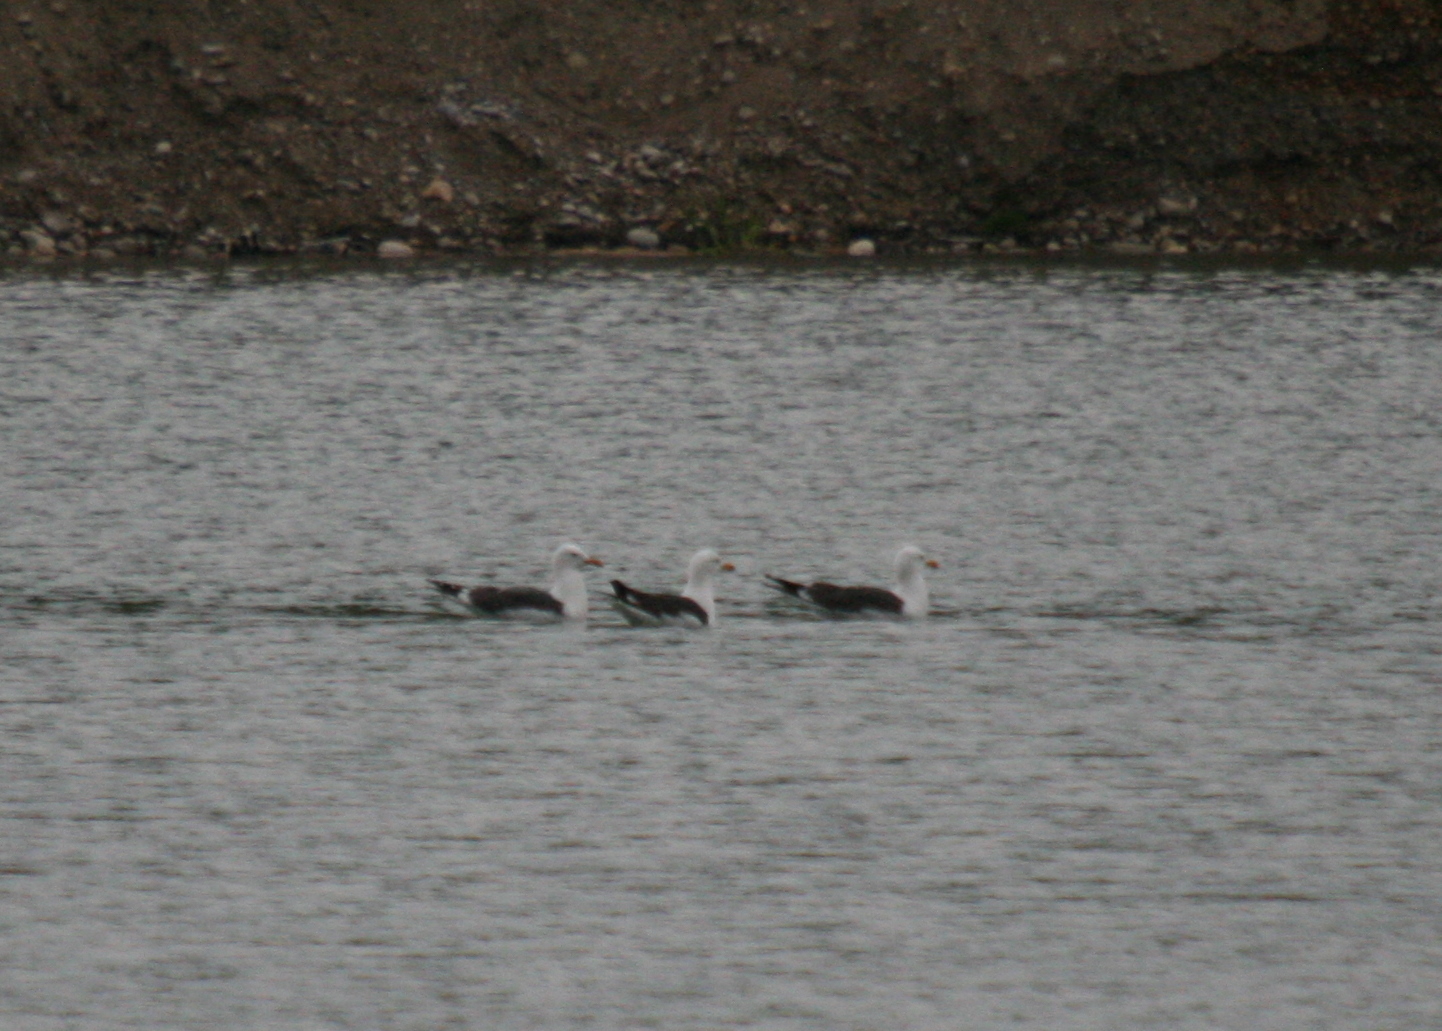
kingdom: Animalia
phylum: Chordata
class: Aves
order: Charadriiformes
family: Laridae
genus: Larus
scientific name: Larus fuscus
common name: Lesser black-backed gull
